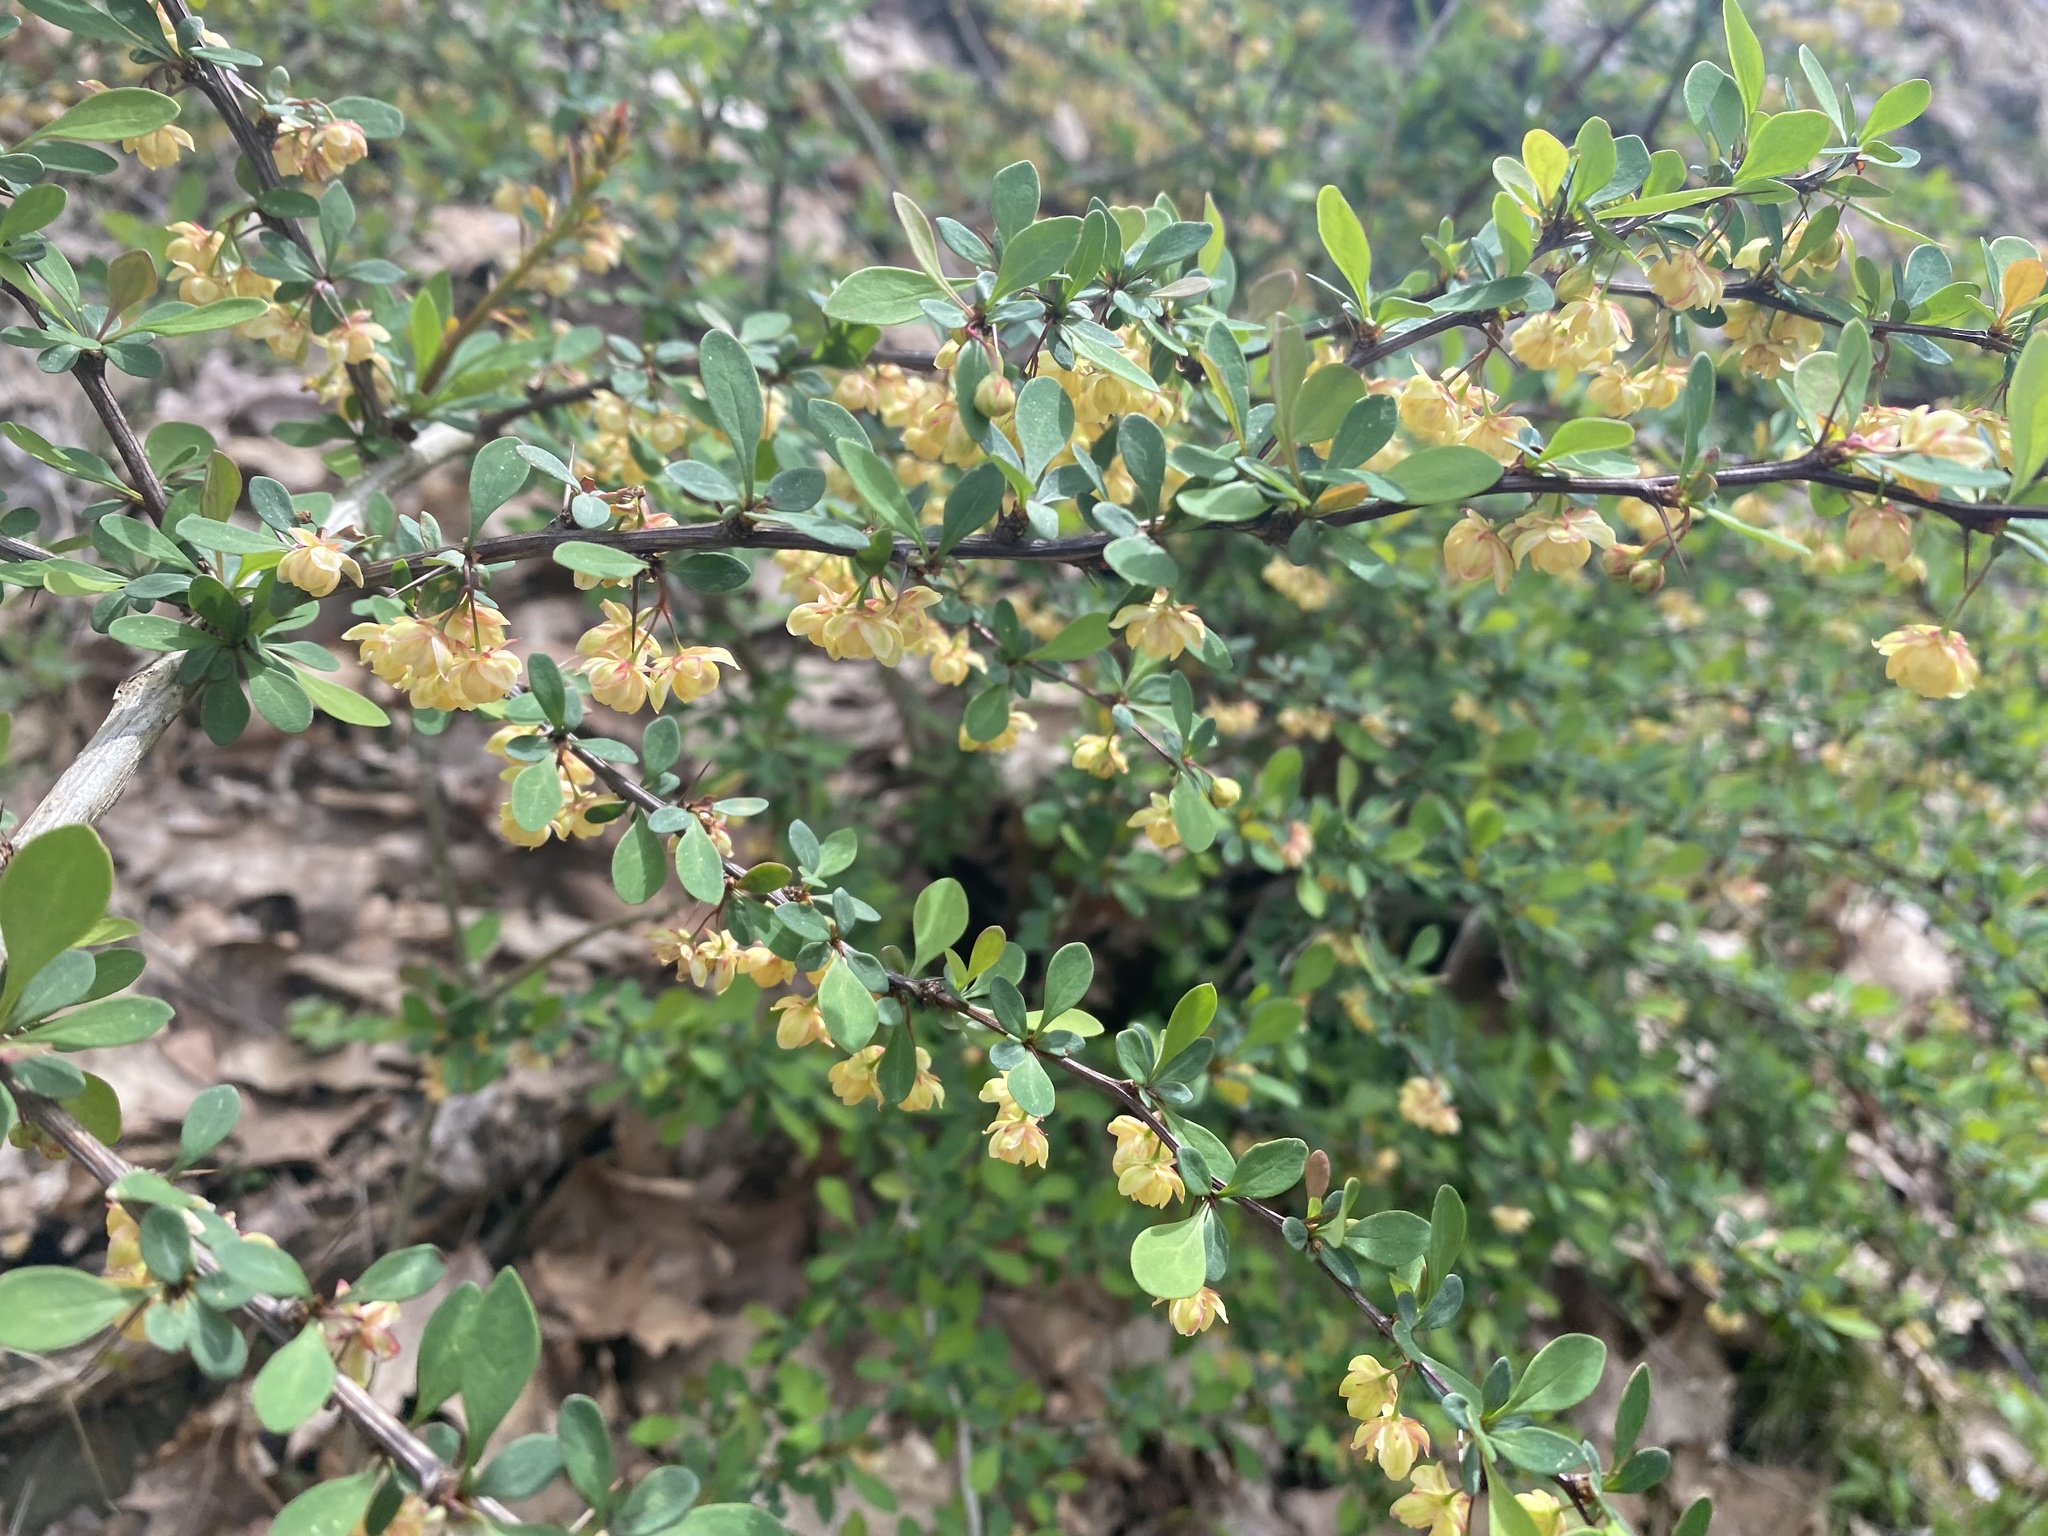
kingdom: Plantae
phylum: Tracheophyta
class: Magnoliopsida
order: Ranunculales
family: Berberidaceae
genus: Berberis
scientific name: Berberis thunbergii
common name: Japanese barberry
